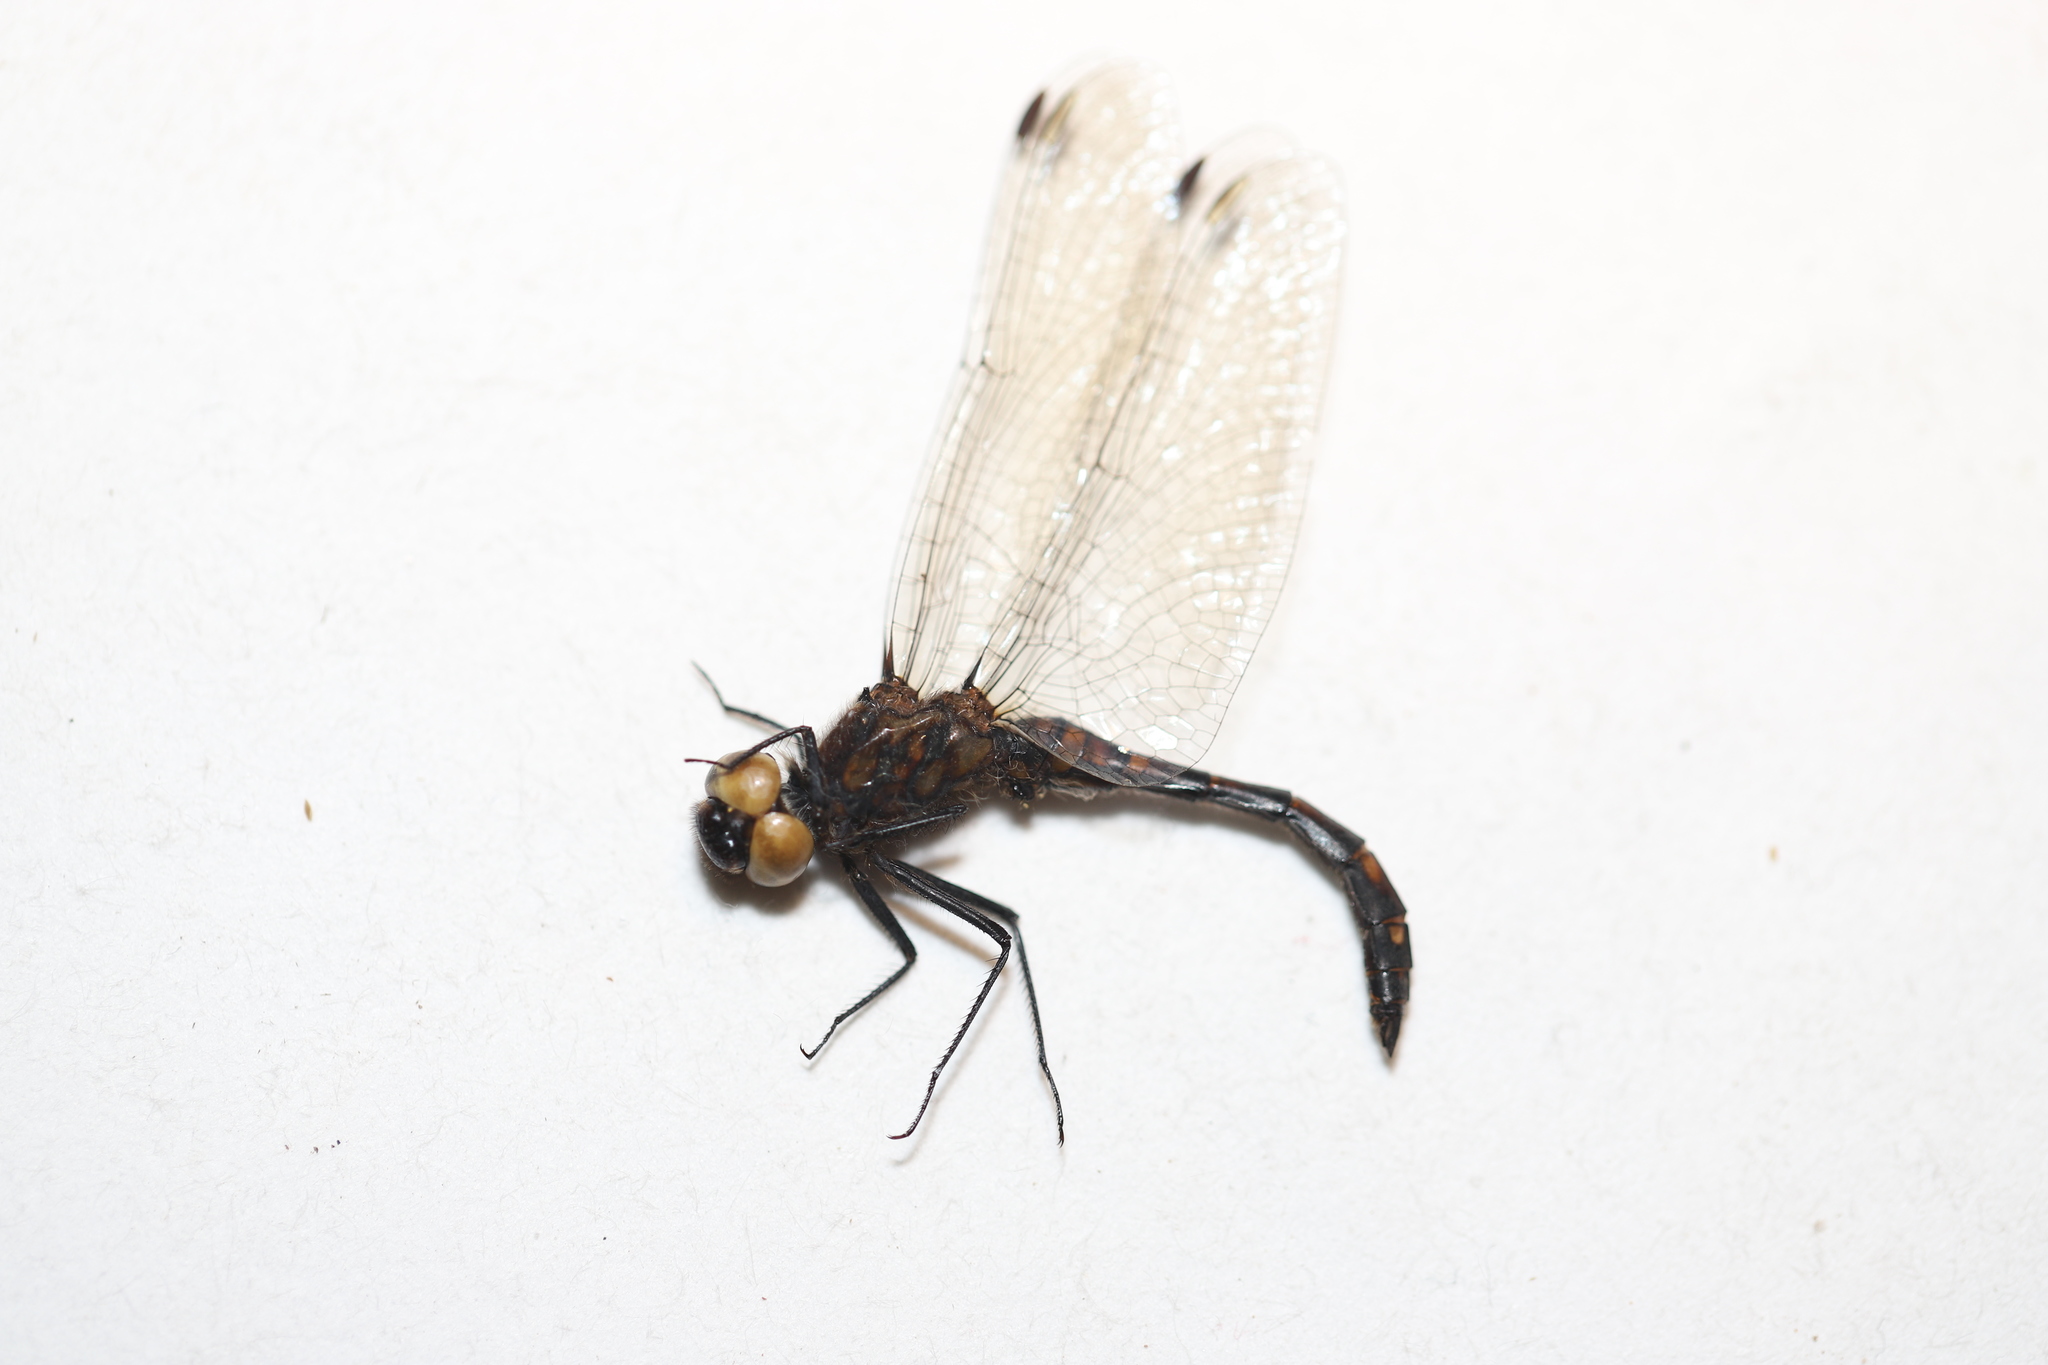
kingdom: Animalia
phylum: Arthropoda
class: Insecta
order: Odonata
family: Libellulidae
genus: Sympetrum
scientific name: Sympetrum danae
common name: Black darter
